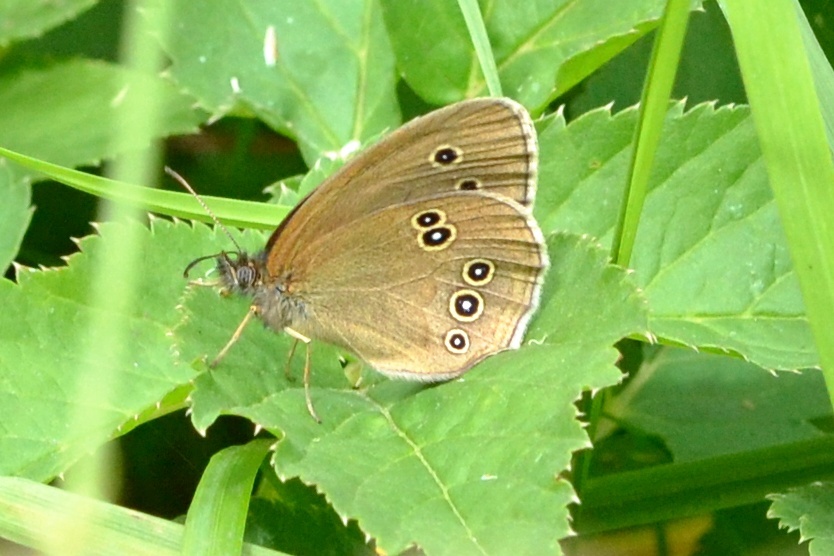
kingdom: Animalia
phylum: Arthropoda
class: Insecta
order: Lepidoptera
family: Nymphalidae
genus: Aphantopus
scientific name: Aphantopus hyperantus
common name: Ringlet
